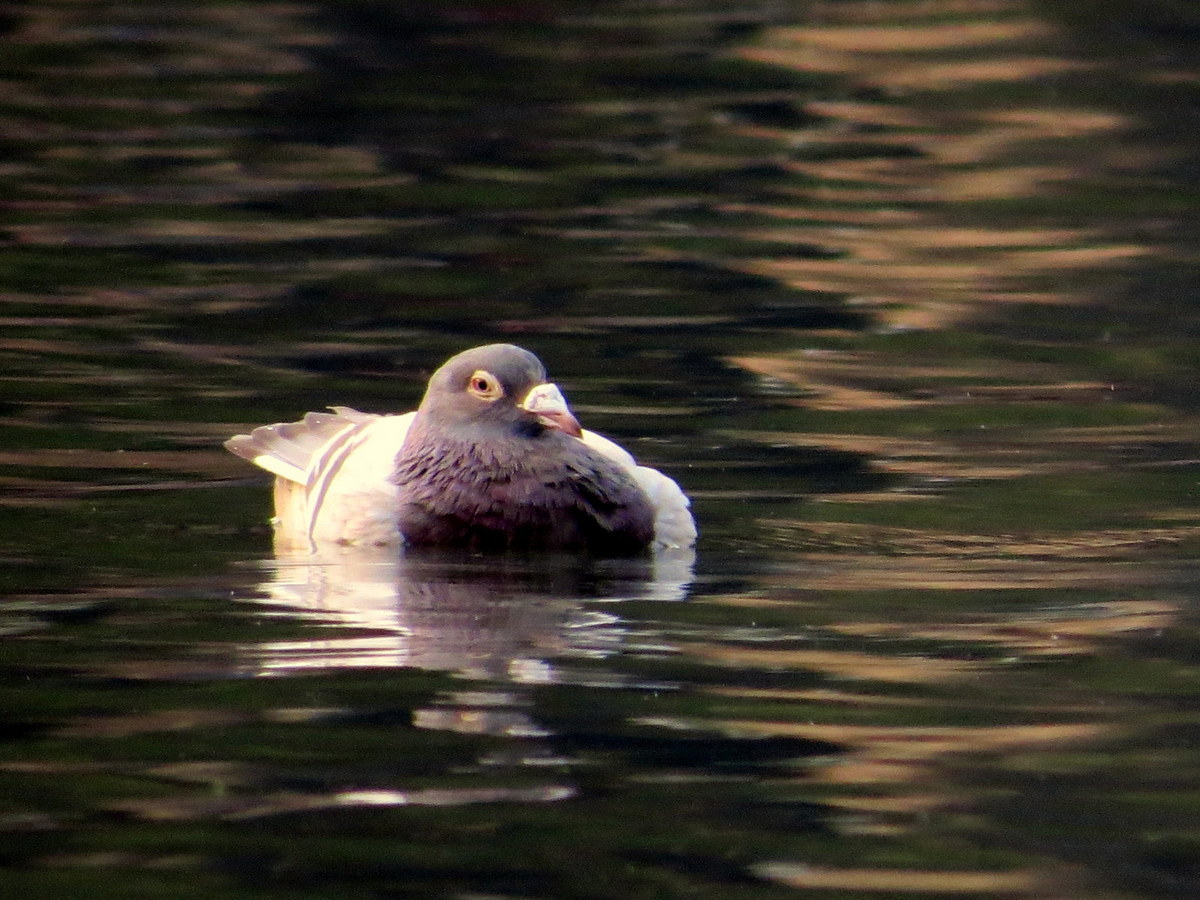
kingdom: Animalia
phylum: Chordata
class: Aves
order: Columbiformes
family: Columbidae
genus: Columba
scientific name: Columba livia
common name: Rock pigeon
